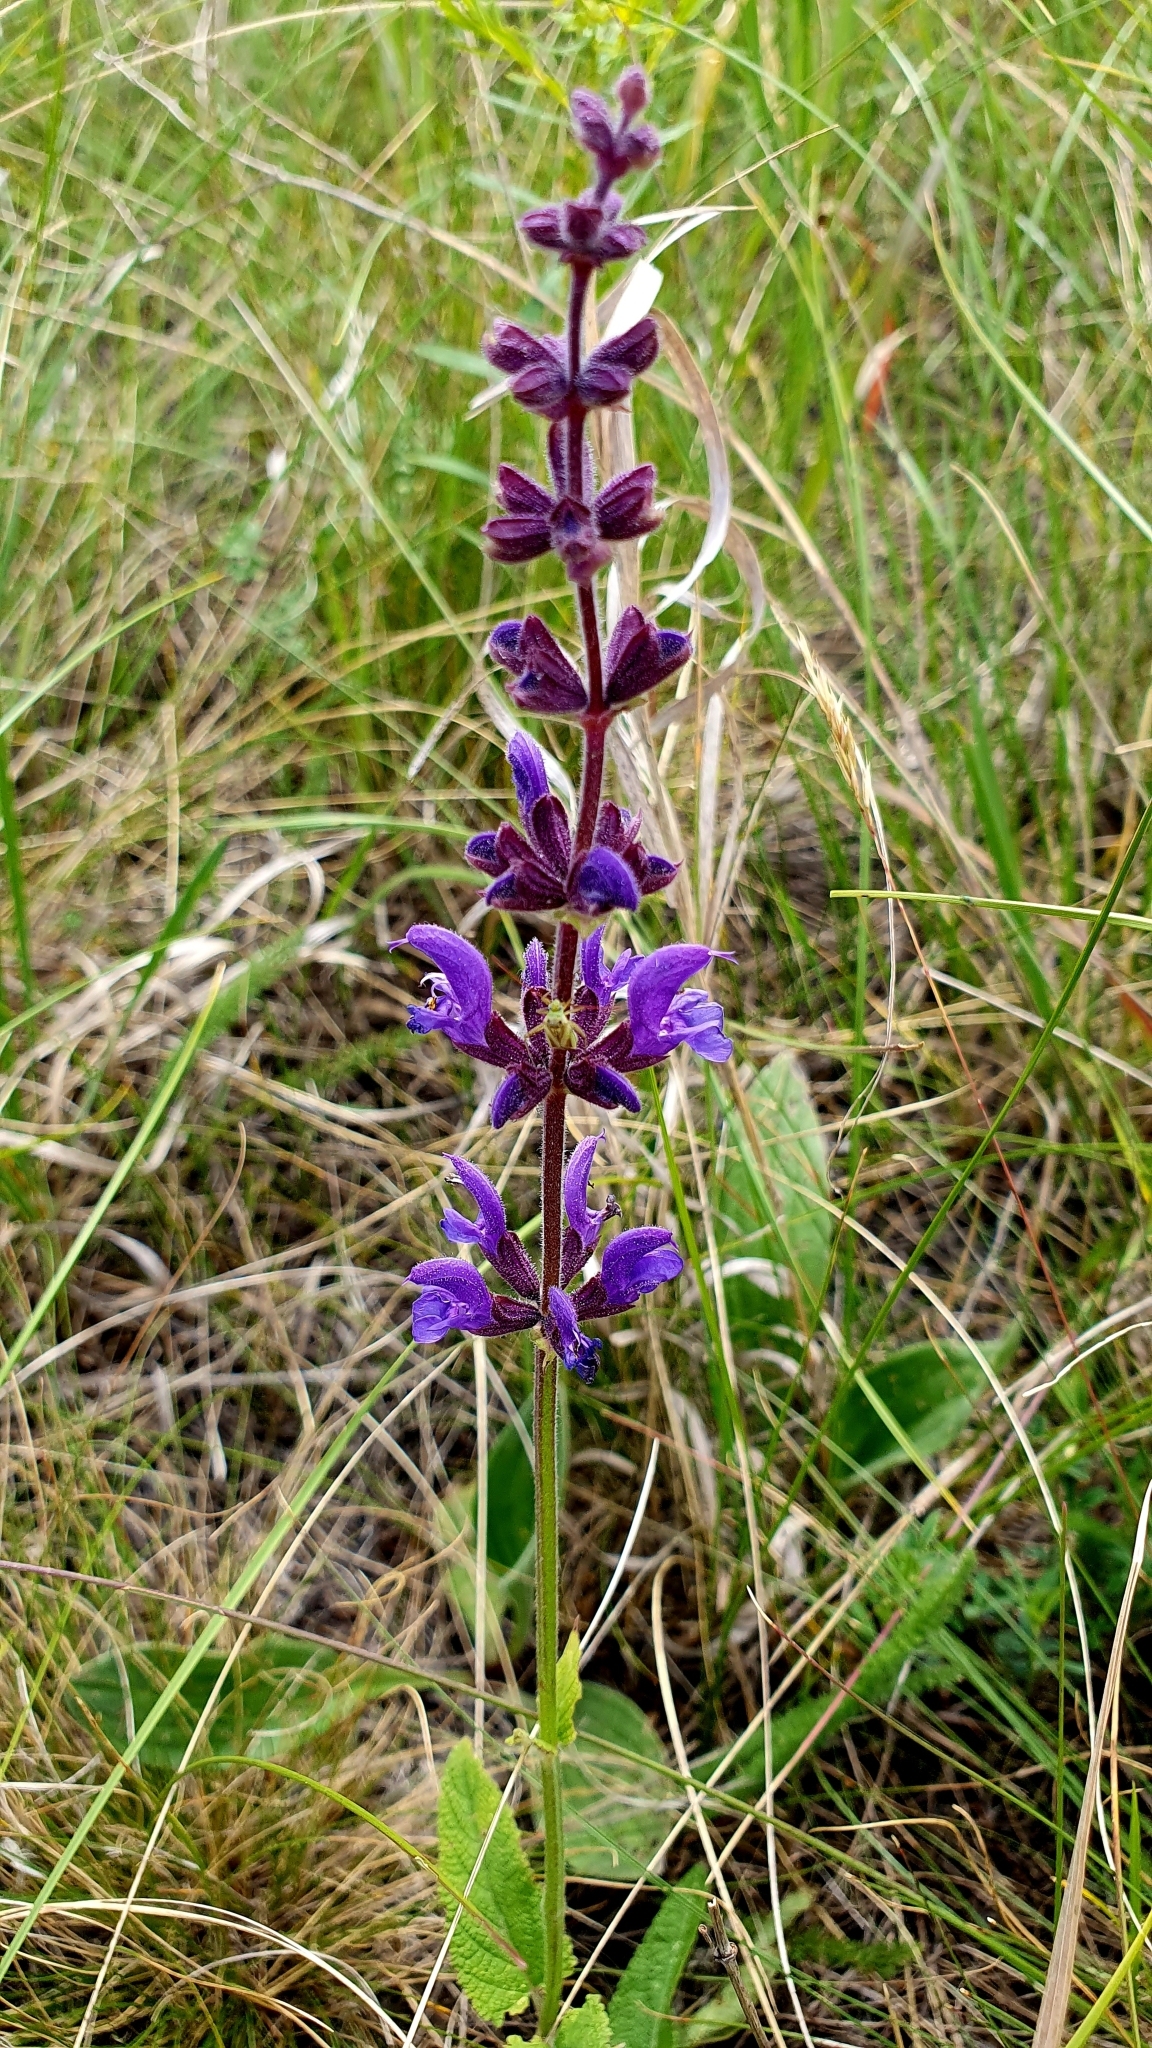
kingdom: Plantae
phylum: Tracheophyta
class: Magnoliopsida
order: Lamiales
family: Lamiaceae
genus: Salvia
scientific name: Salvia dumetorum
